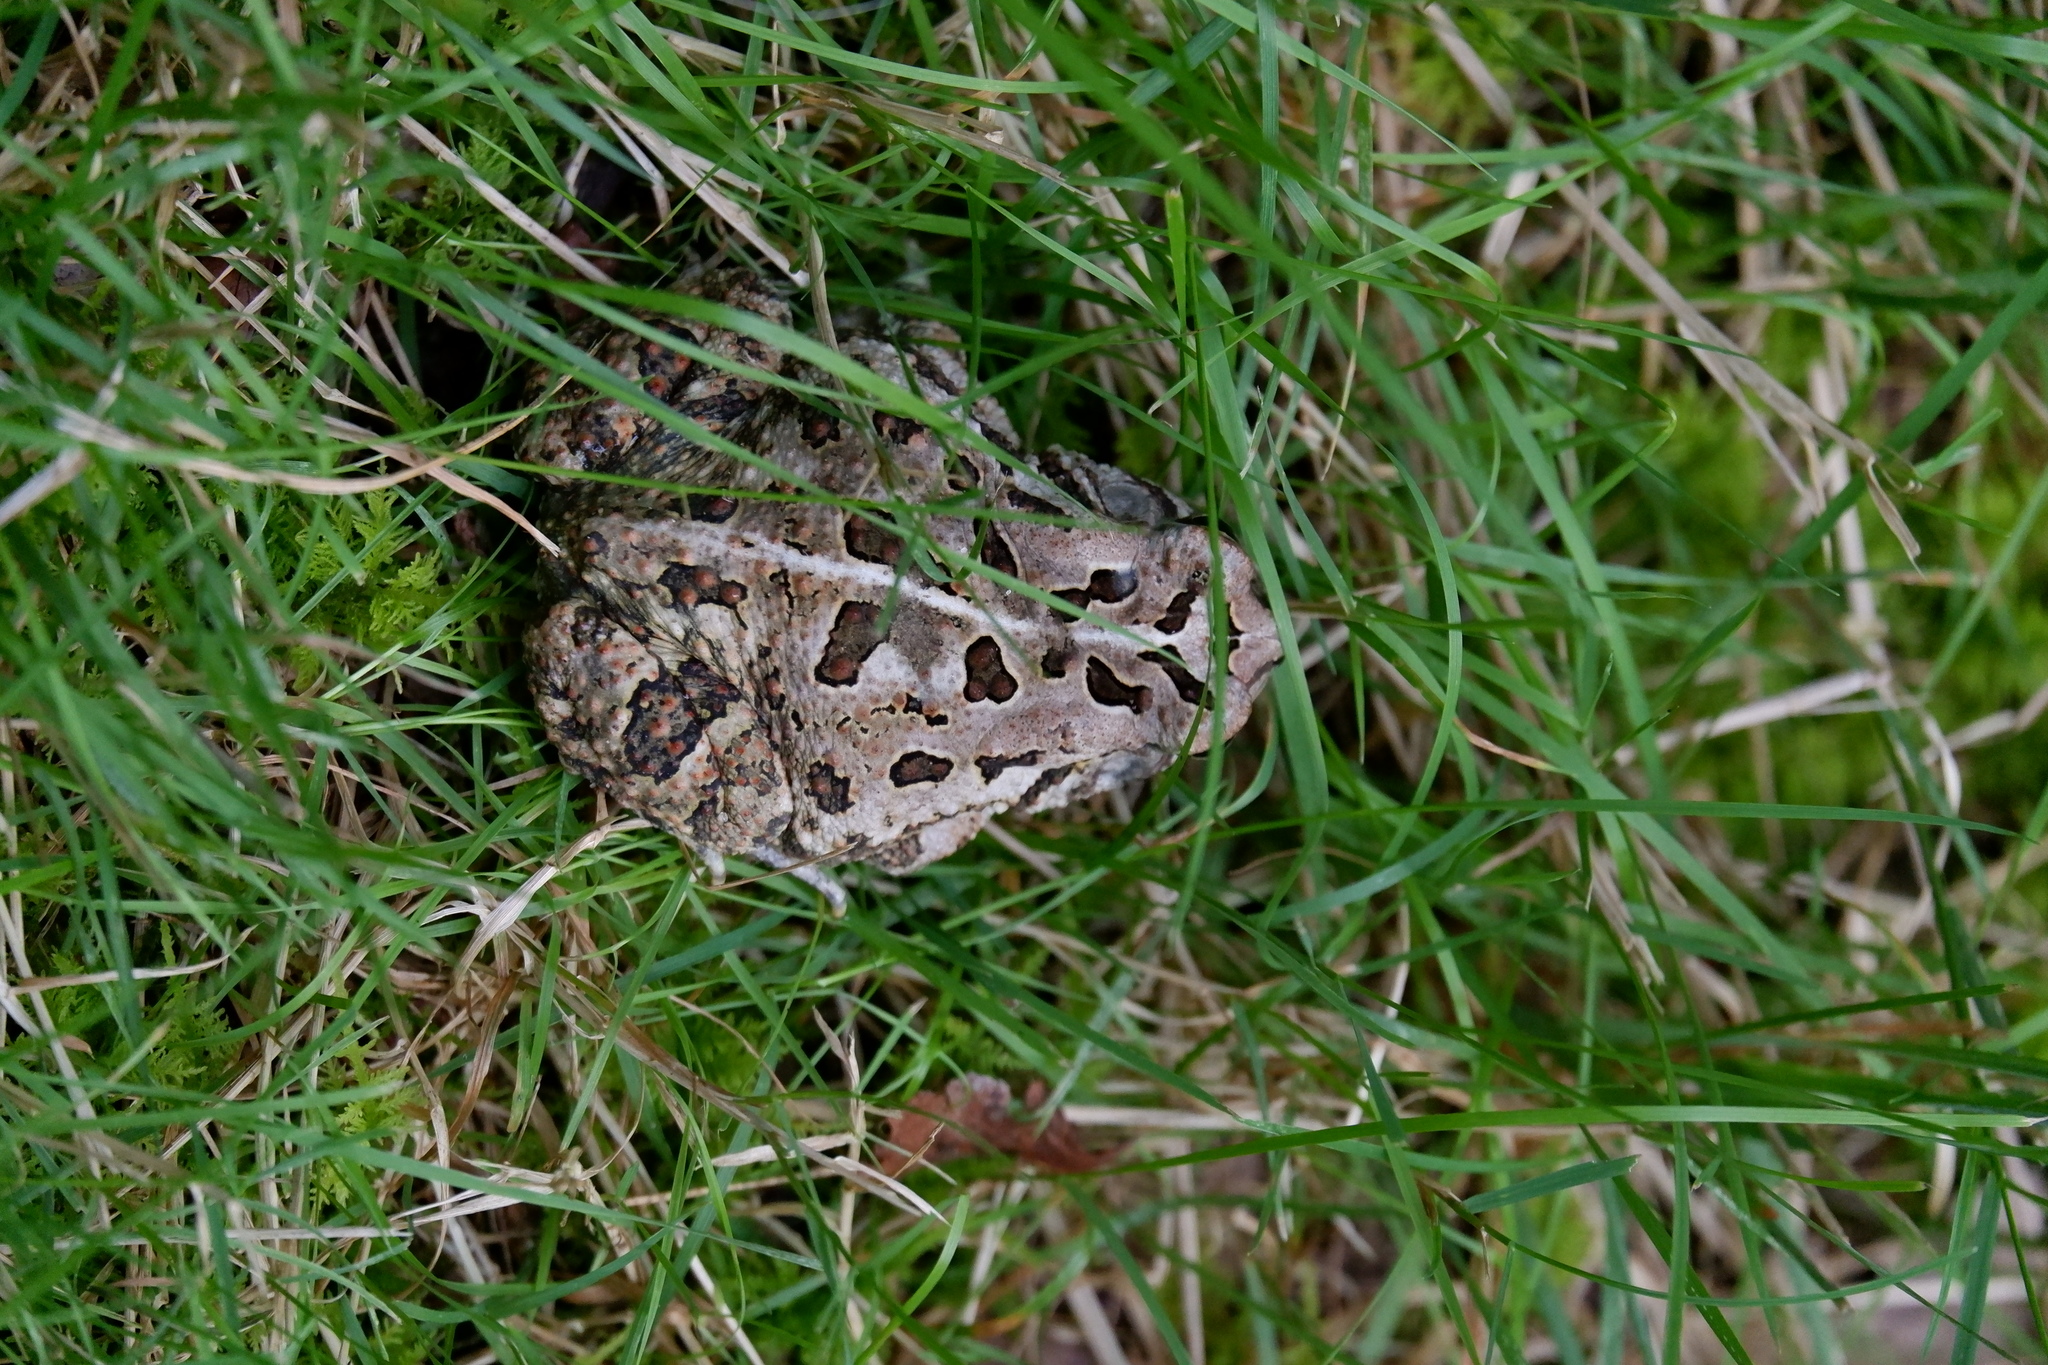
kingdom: Animalia
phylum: Chordata
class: Amphibia
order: Anura
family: Bufonidae
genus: Anaxyrus
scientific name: Anaxyrus fowleri
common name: Fowler's toad
